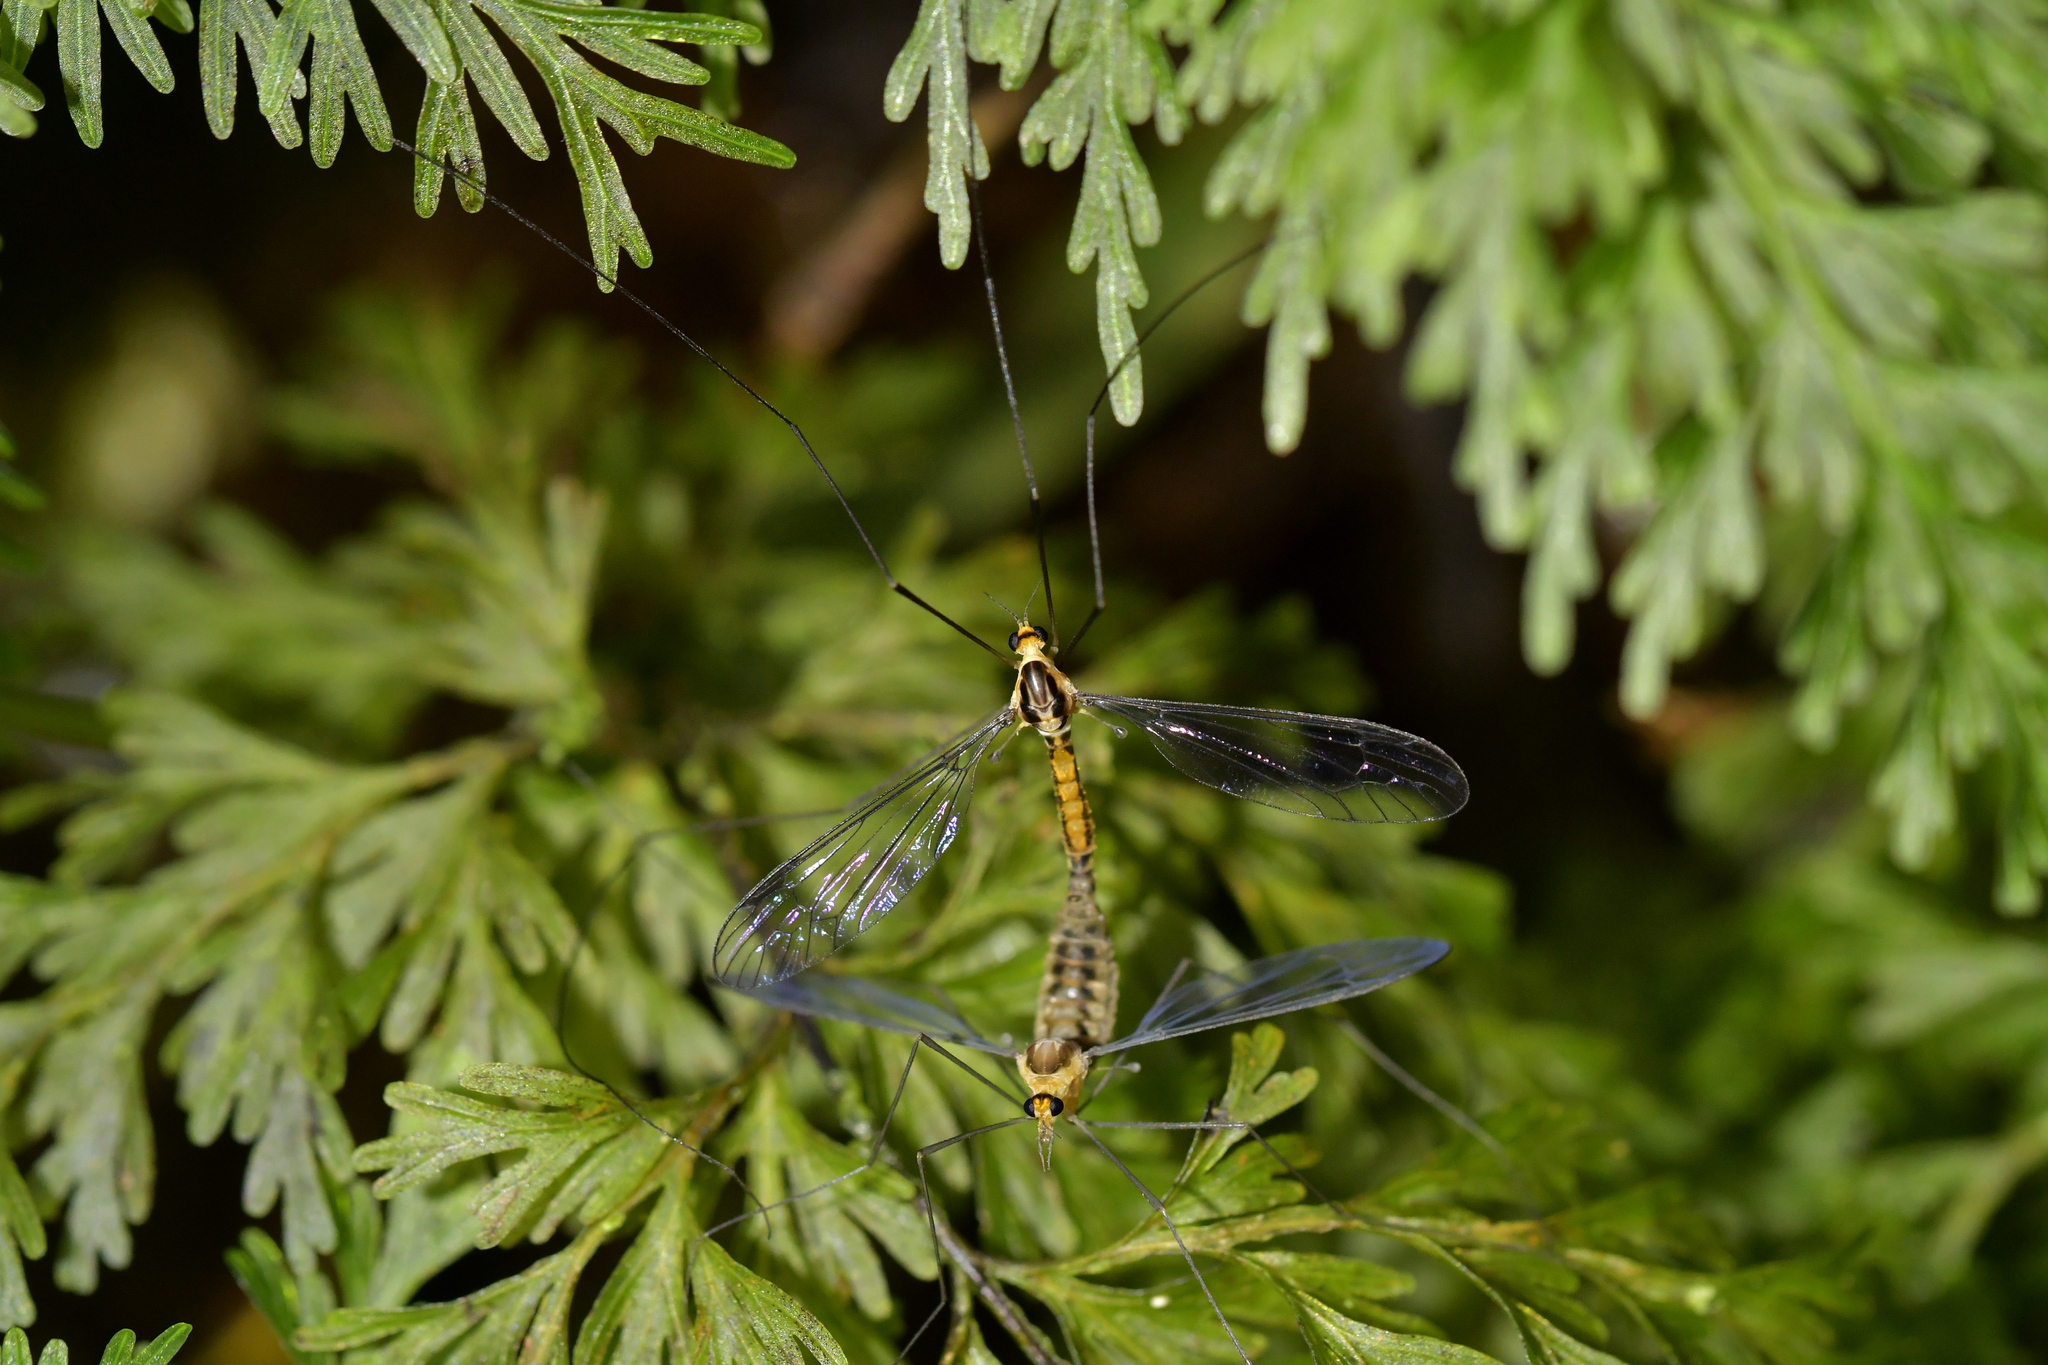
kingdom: Animalia
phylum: Arthropoda
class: Insecta
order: Diptera
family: Tipulidae
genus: Leptotarsus
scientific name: Leptotarsus bivittatus
